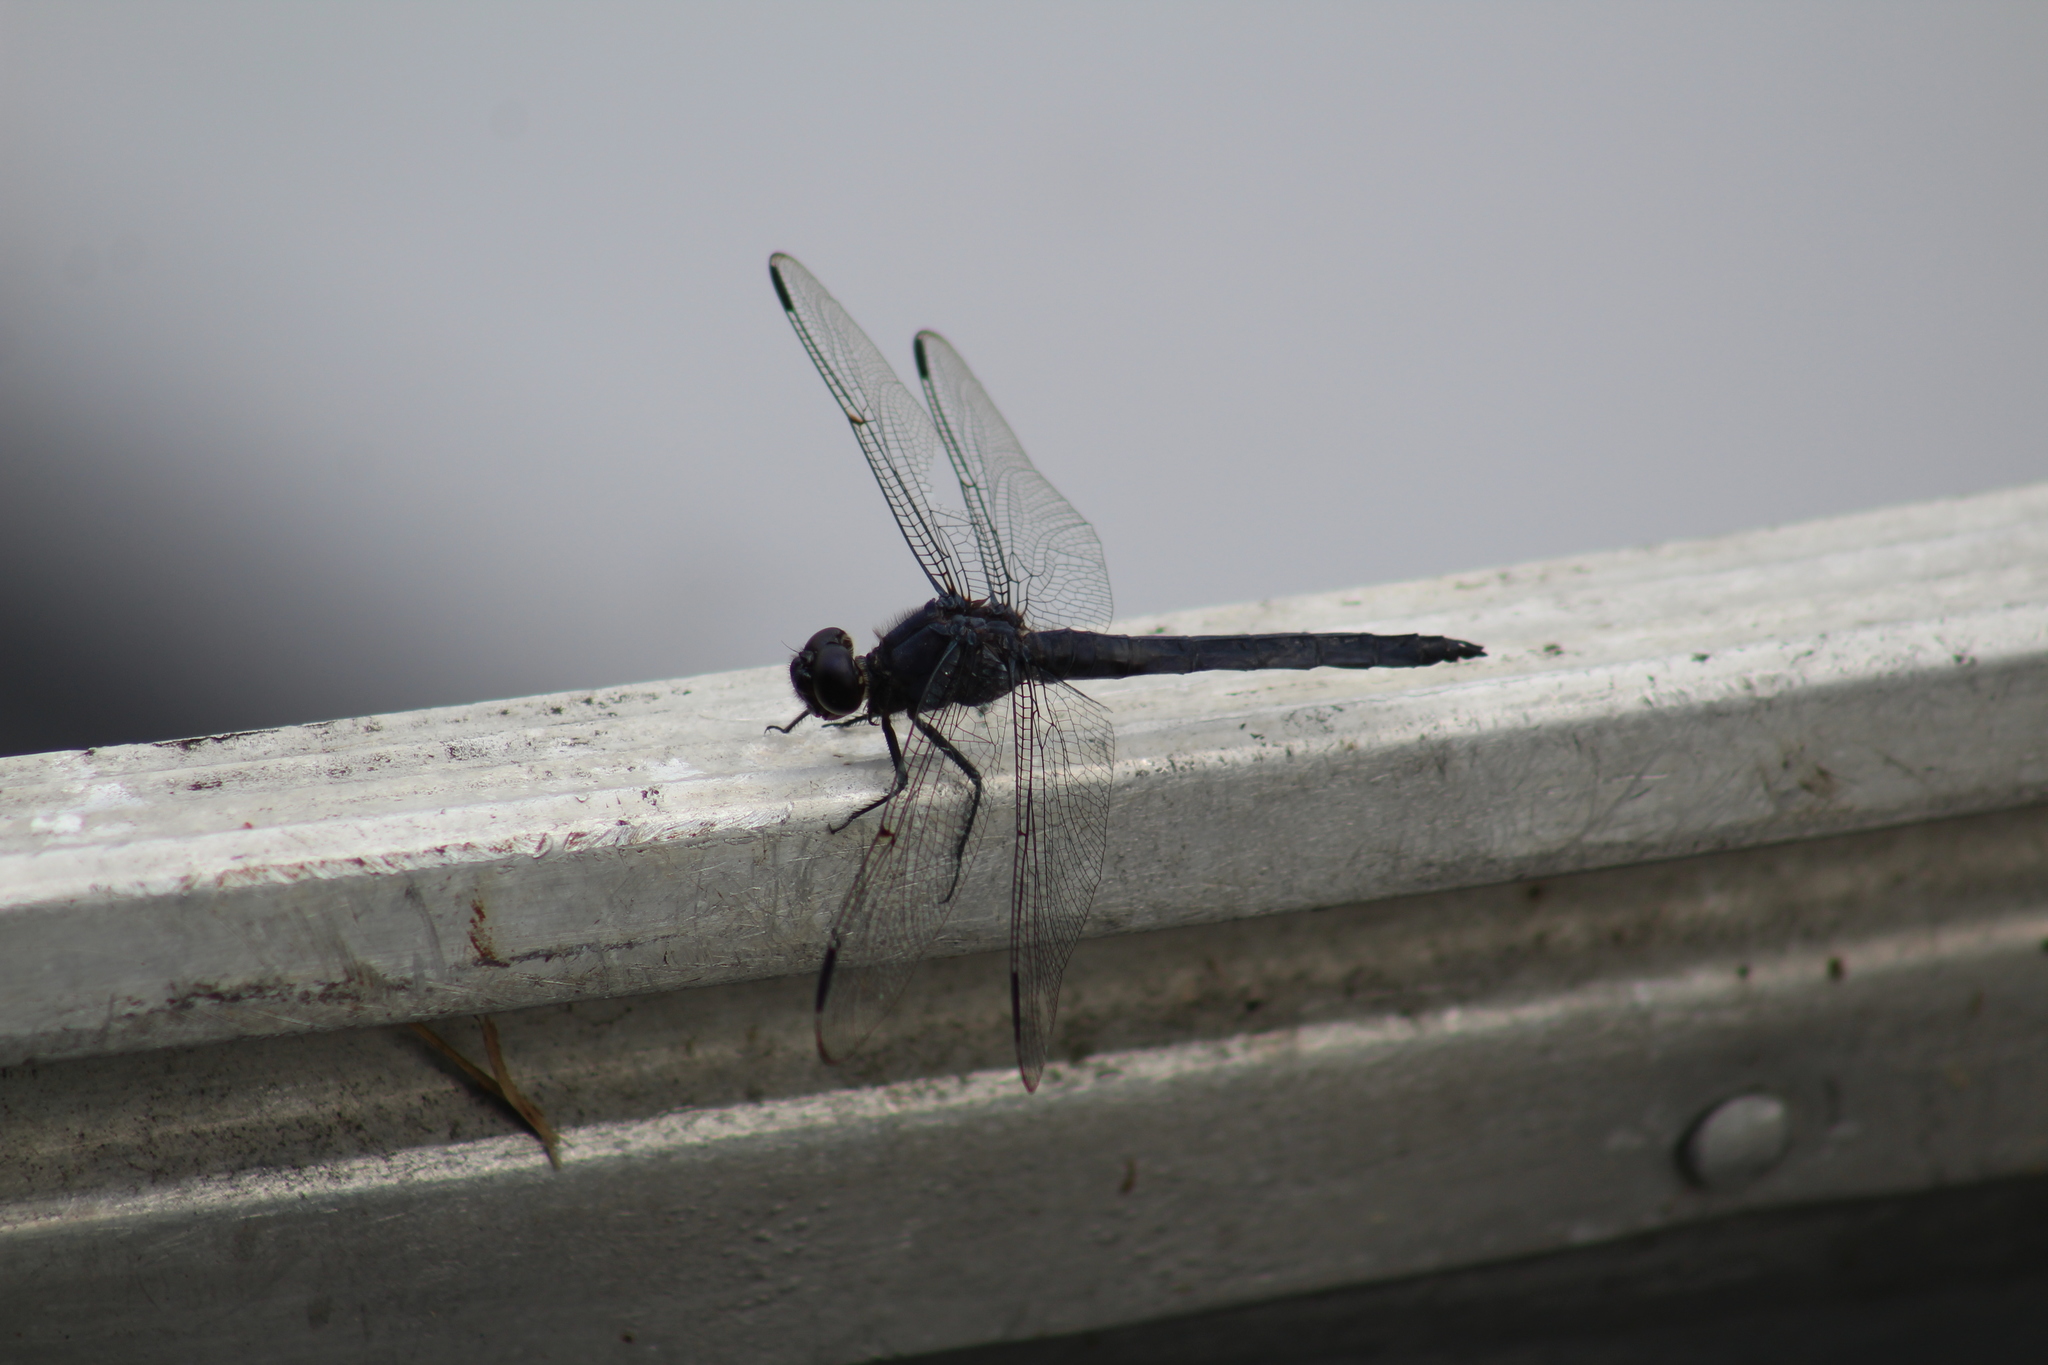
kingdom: Animalia
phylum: Arthropoda
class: Insecta
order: Odonata
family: Libellulidae
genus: Libellula
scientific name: Libellula incesta
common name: Slaty skimmer
